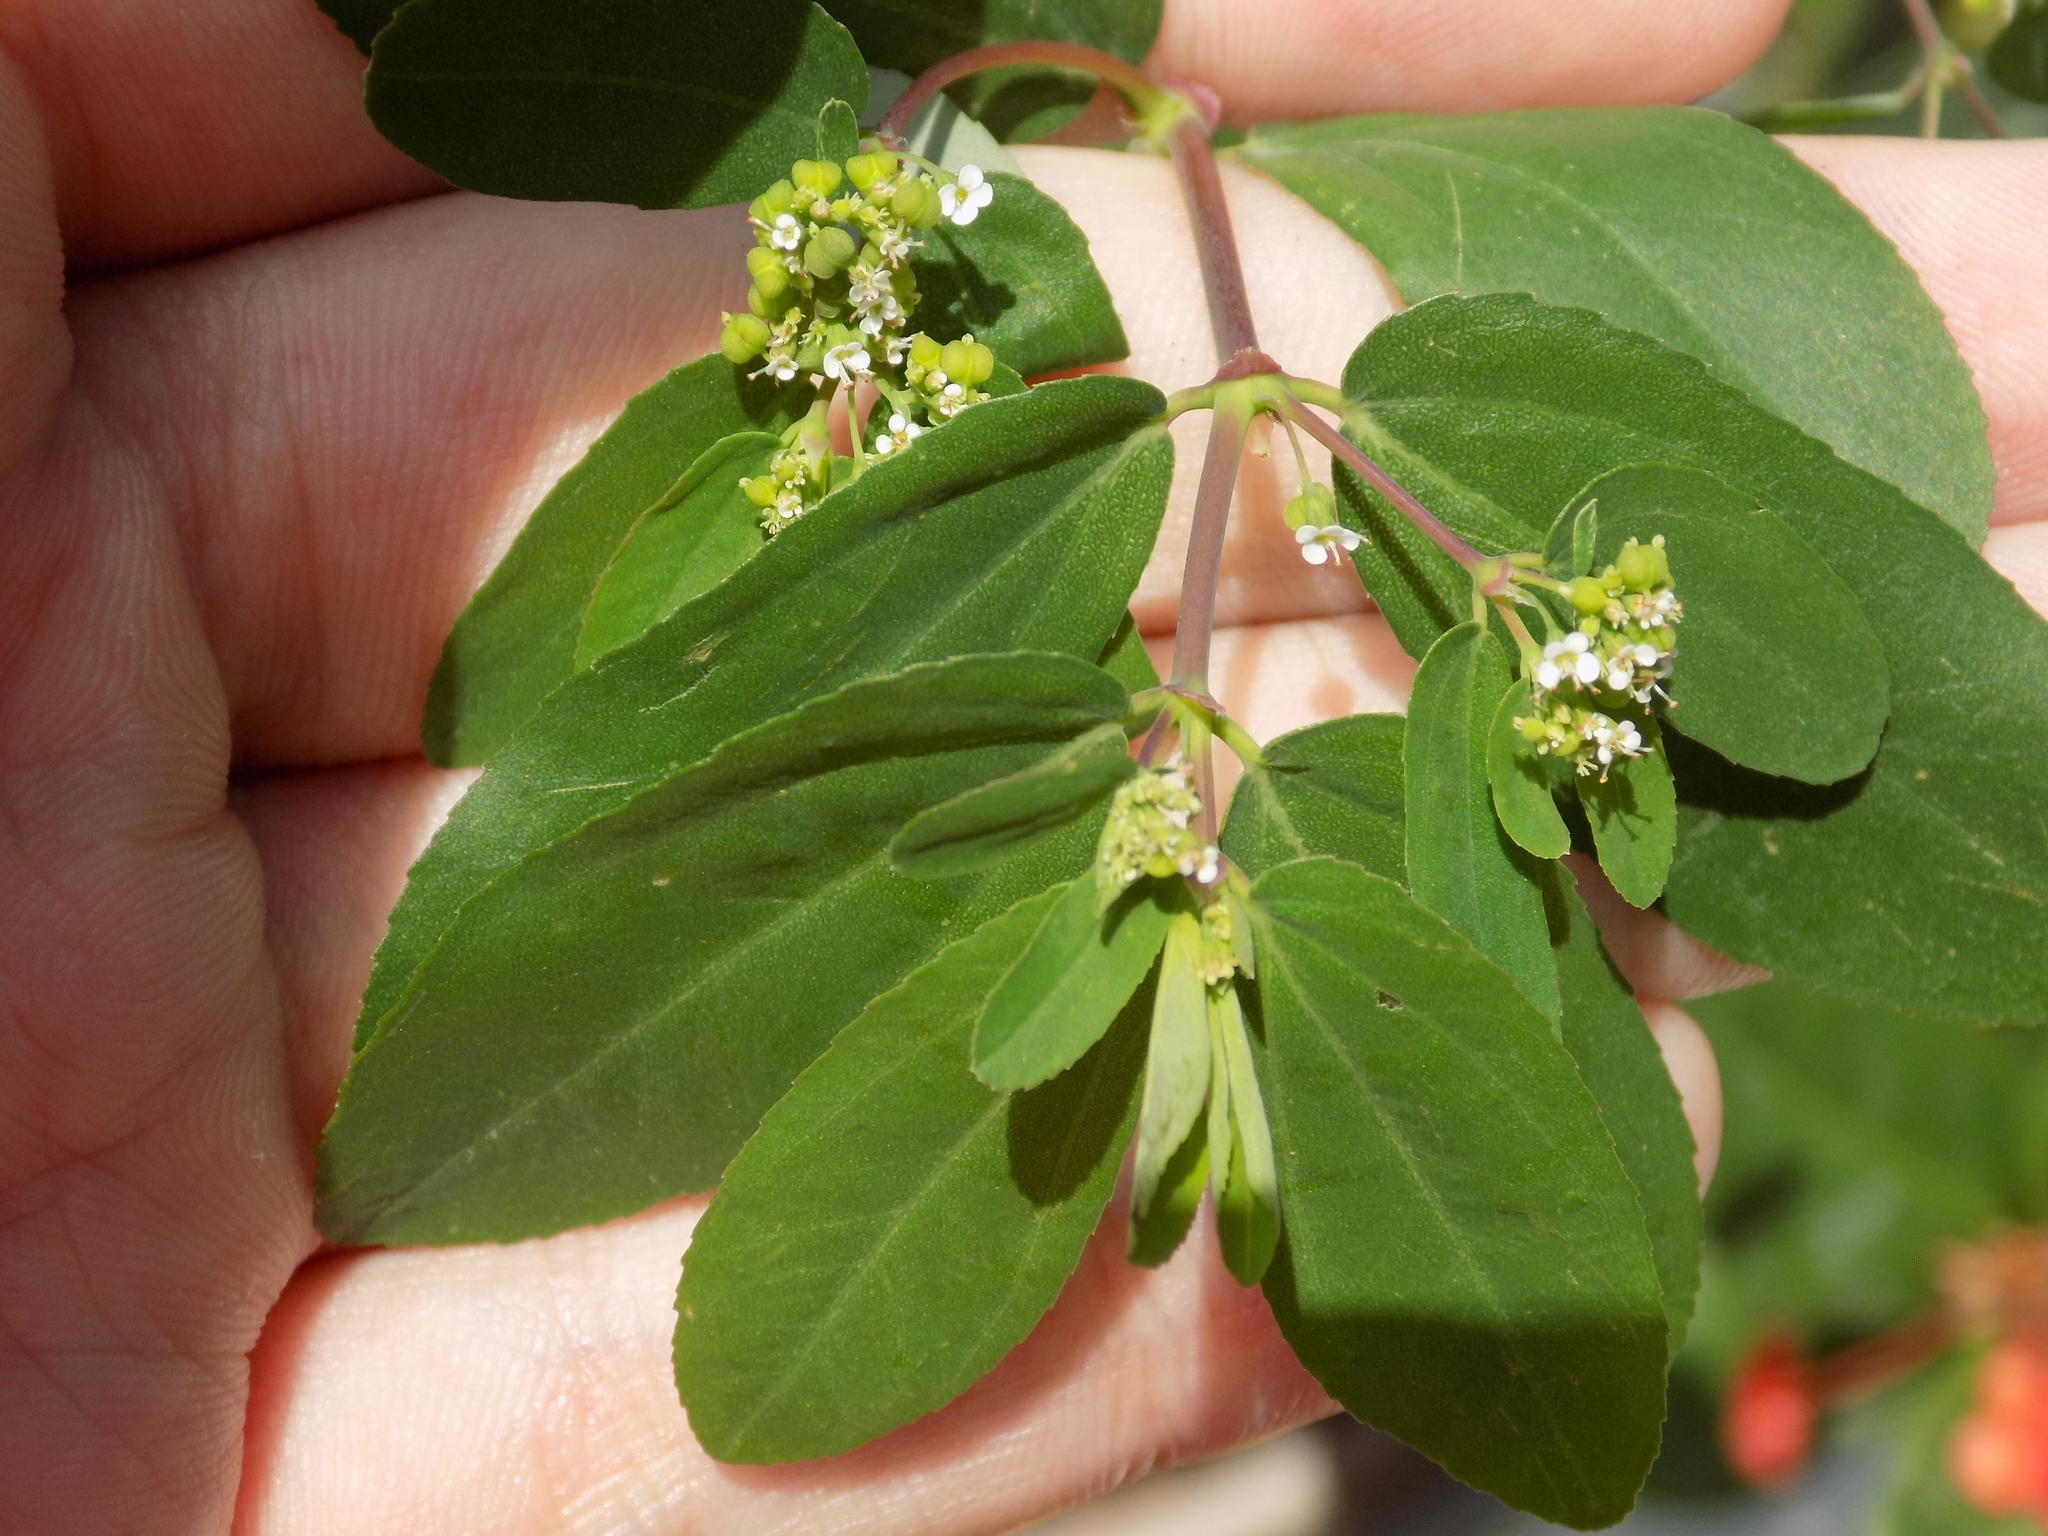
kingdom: Plantae
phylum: Tracheophyta
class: Magnoliopsida
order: Malpighiales
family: Euphorbiaceae
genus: Euphorbia
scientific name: Euphorbia hypericifolia
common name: Graceful sandmat
